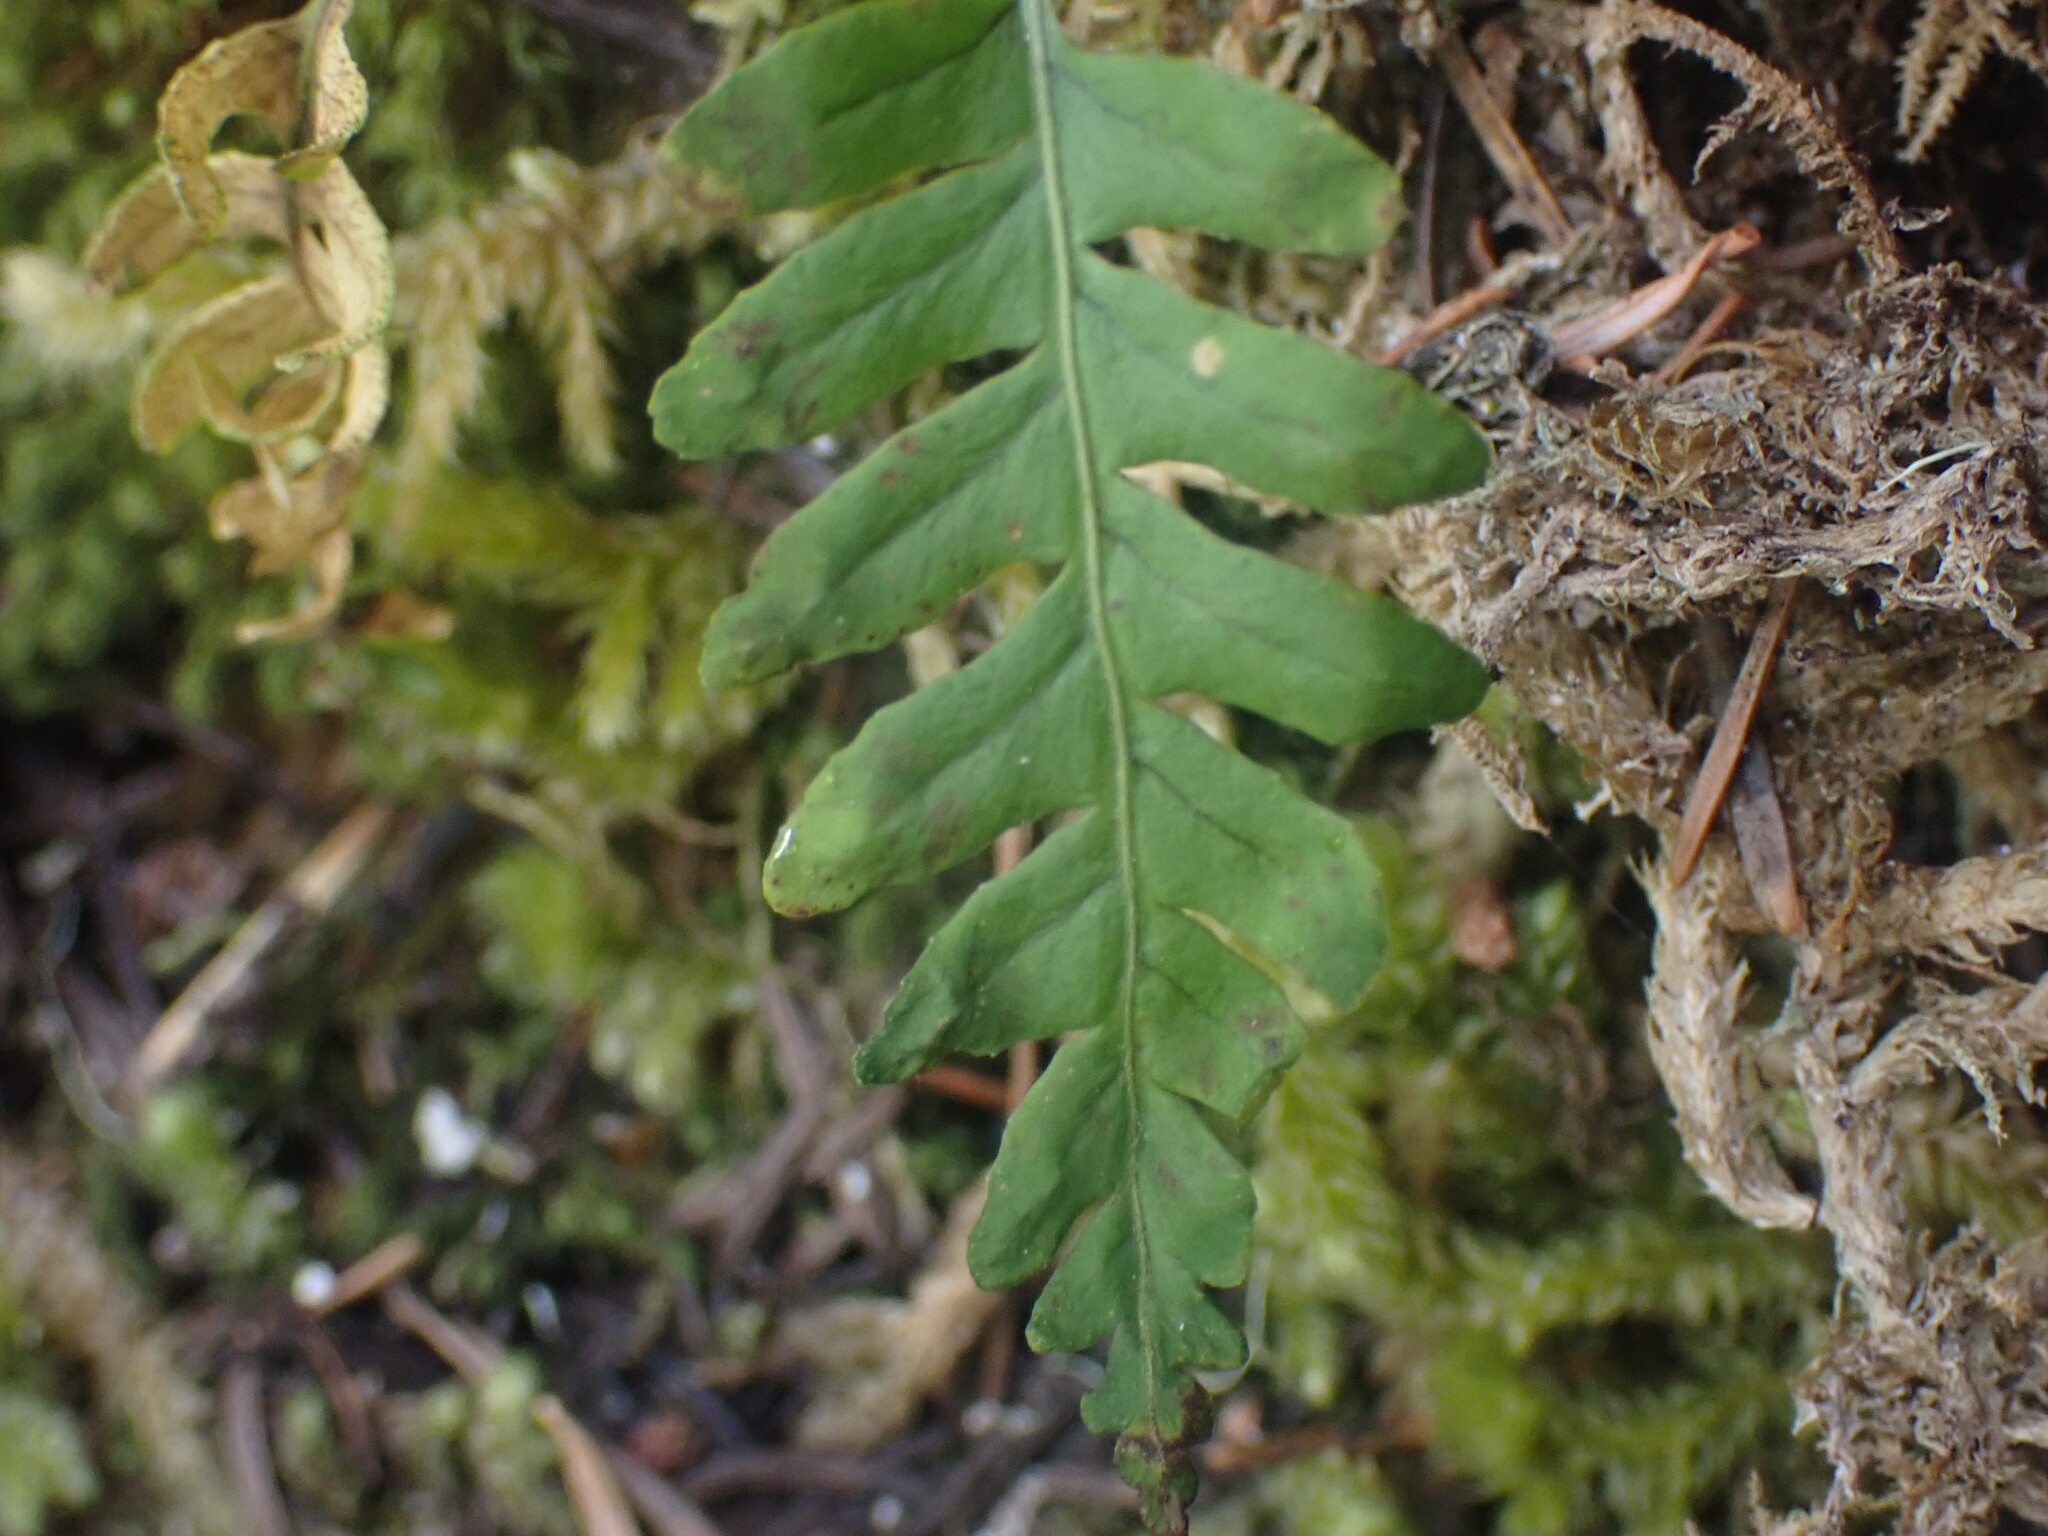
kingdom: Plantae
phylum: Tracheophyta
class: Polypodiopsida
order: Polypodiales
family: Polypodiaceae
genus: Polypodium
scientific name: Polypodium glycyrrhiza
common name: Licorice fern
